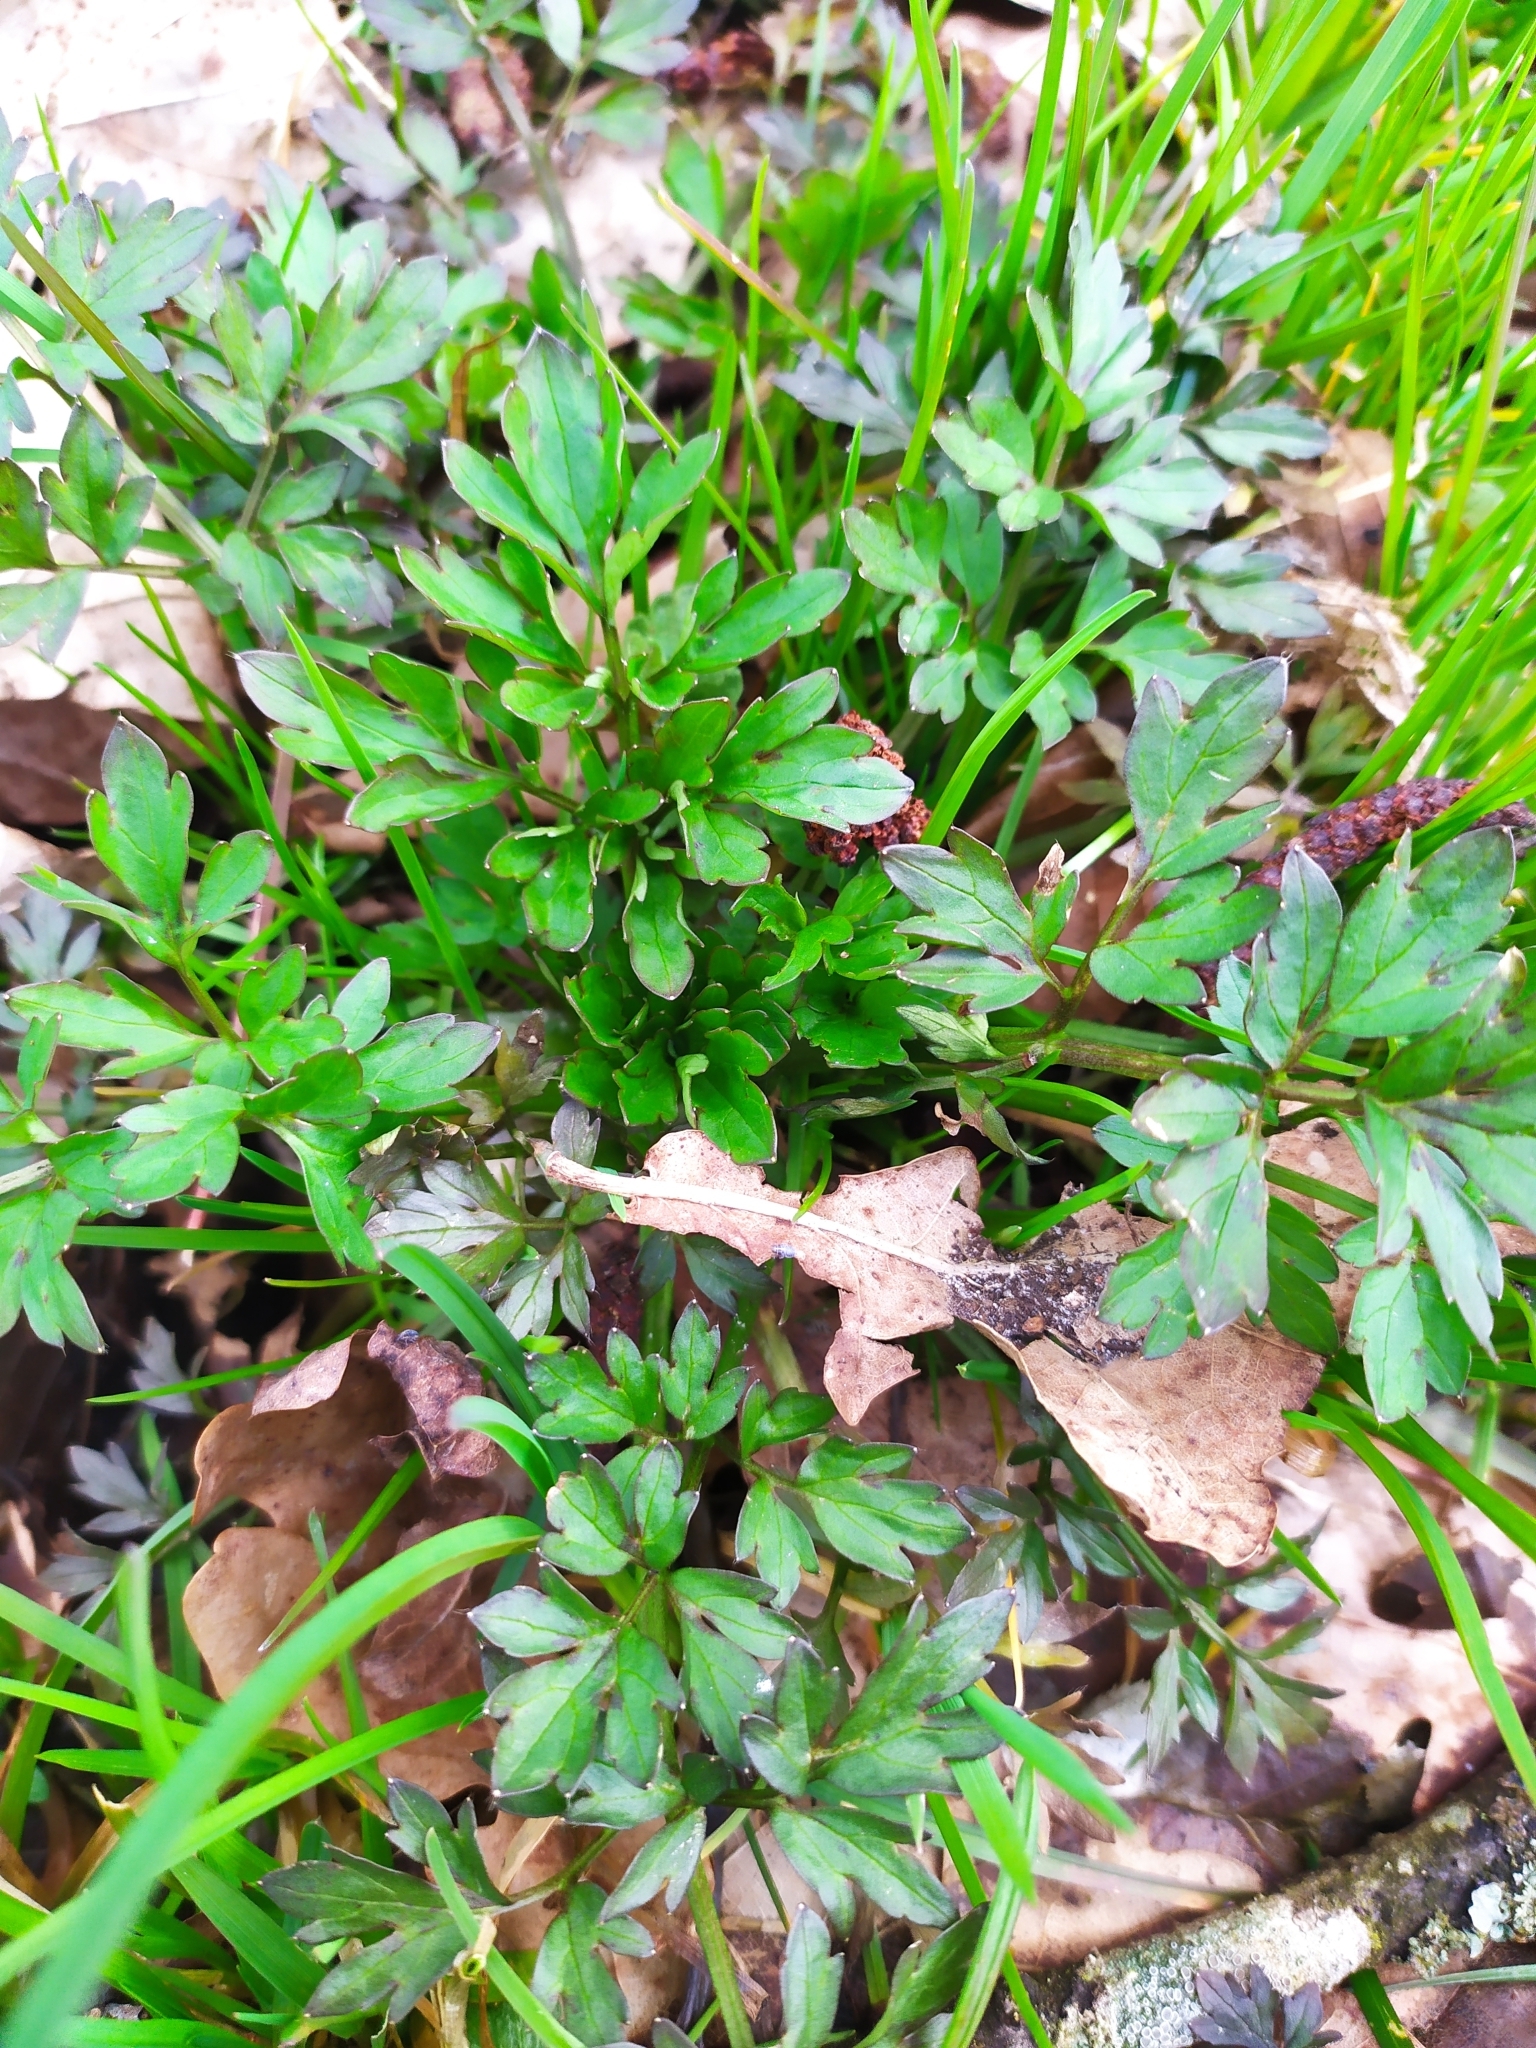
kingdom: Plantae
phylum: Tracheophyta
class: Magnoliopsida
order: Ranunculales
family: Ranunculaceae
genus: Ranunculus
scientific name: Ranunculus repens
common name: Creeping buttercup
